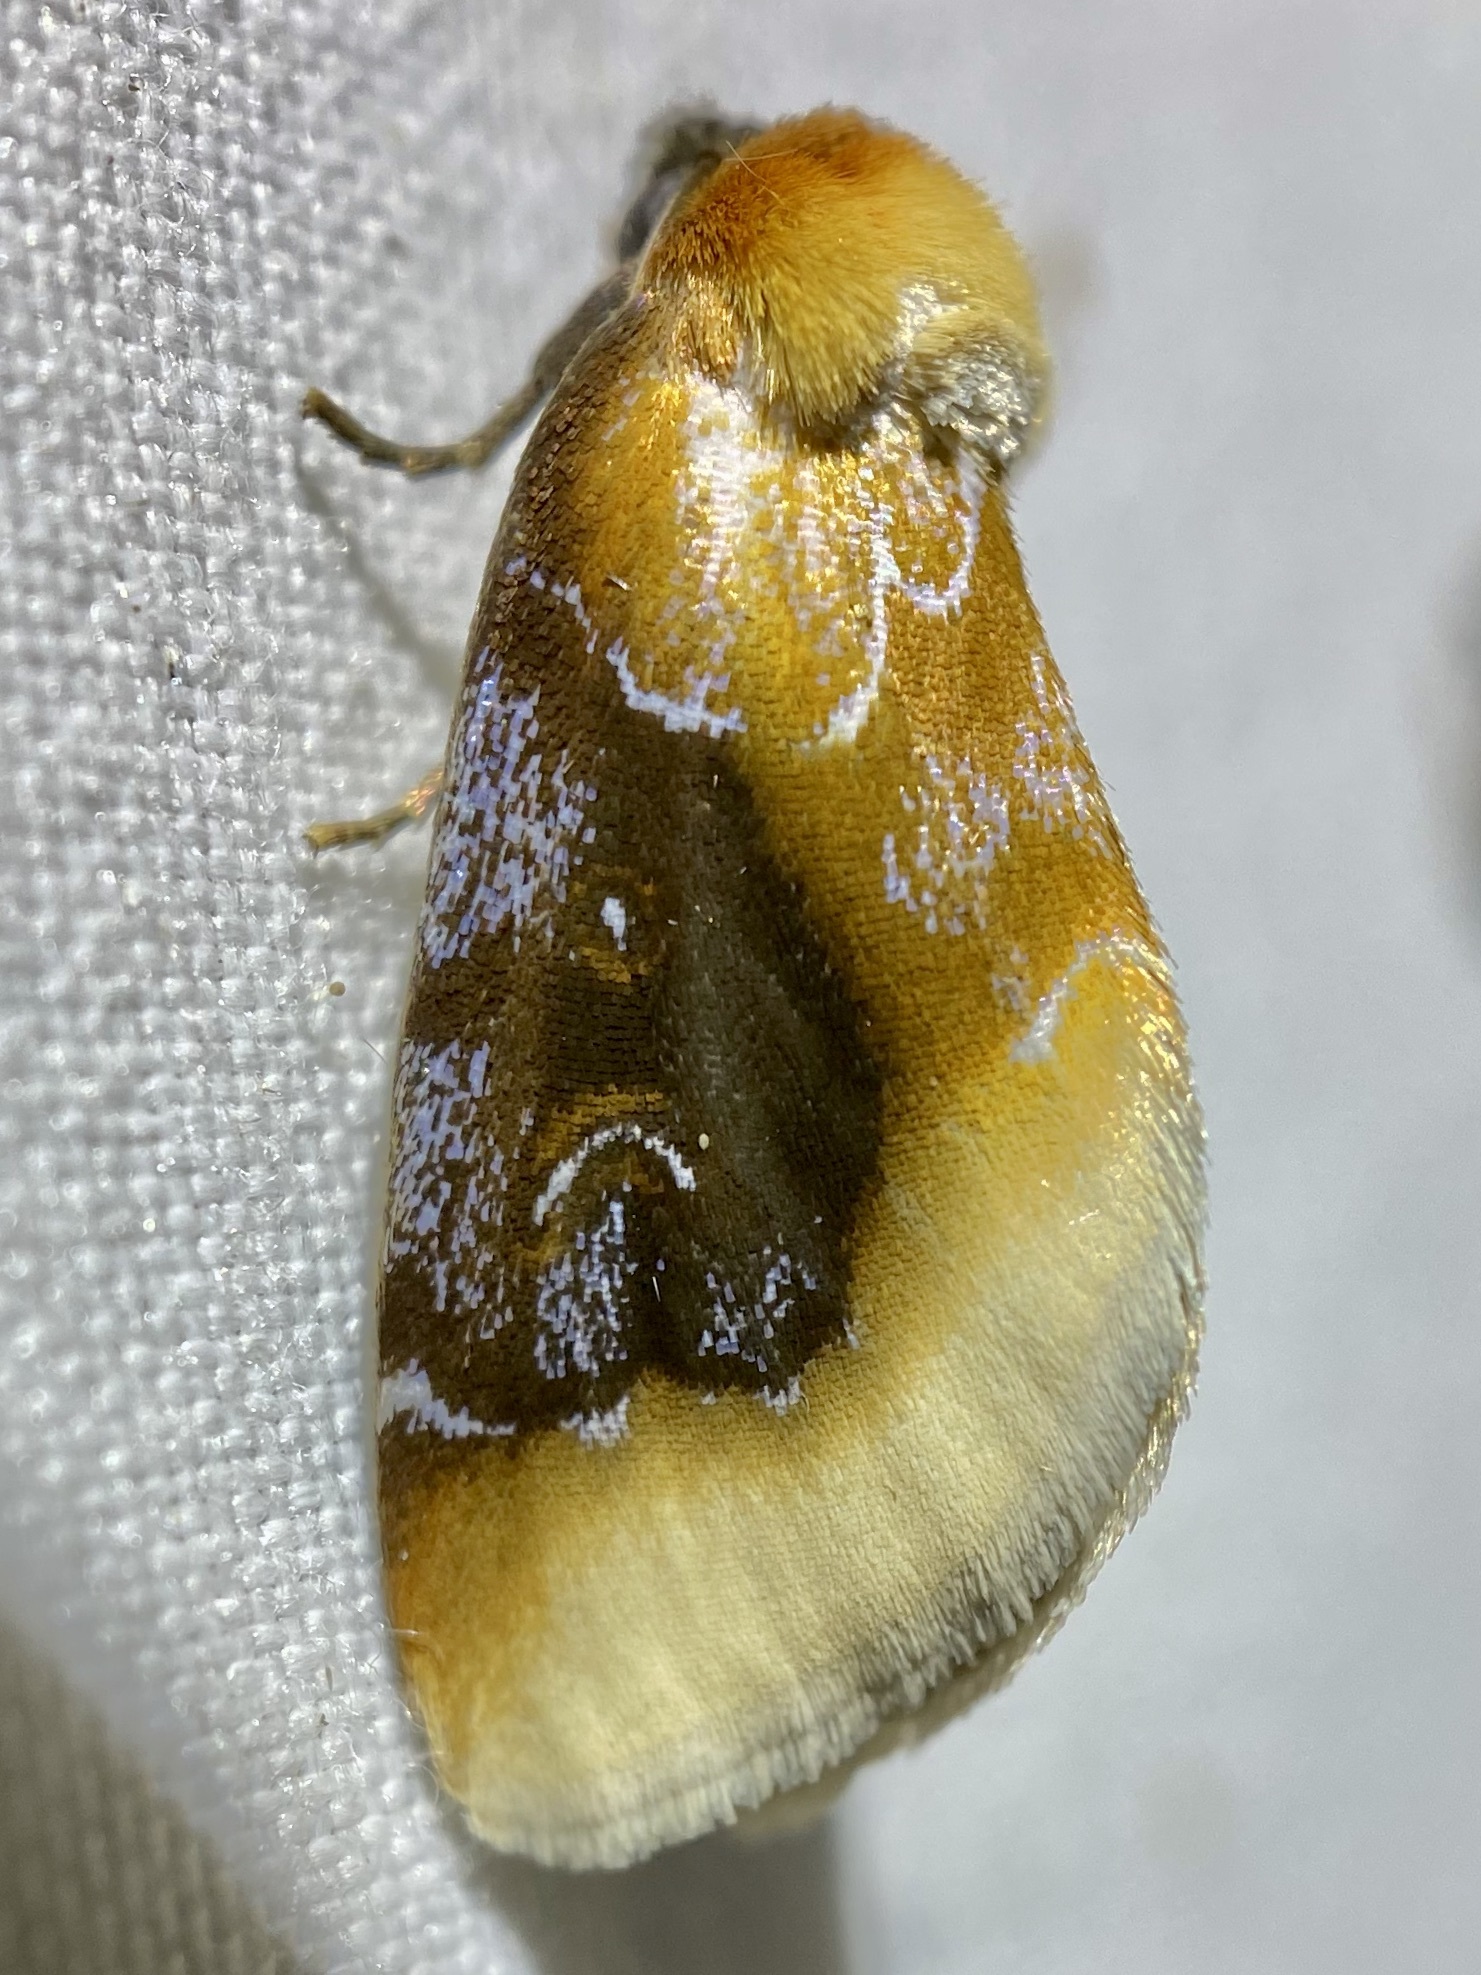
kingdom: Animalia
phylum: Arthropoda
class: Insecta
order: Lepidoptera
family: Noctuidae
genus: Chrysoecia
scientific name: Chrysoecia scira
